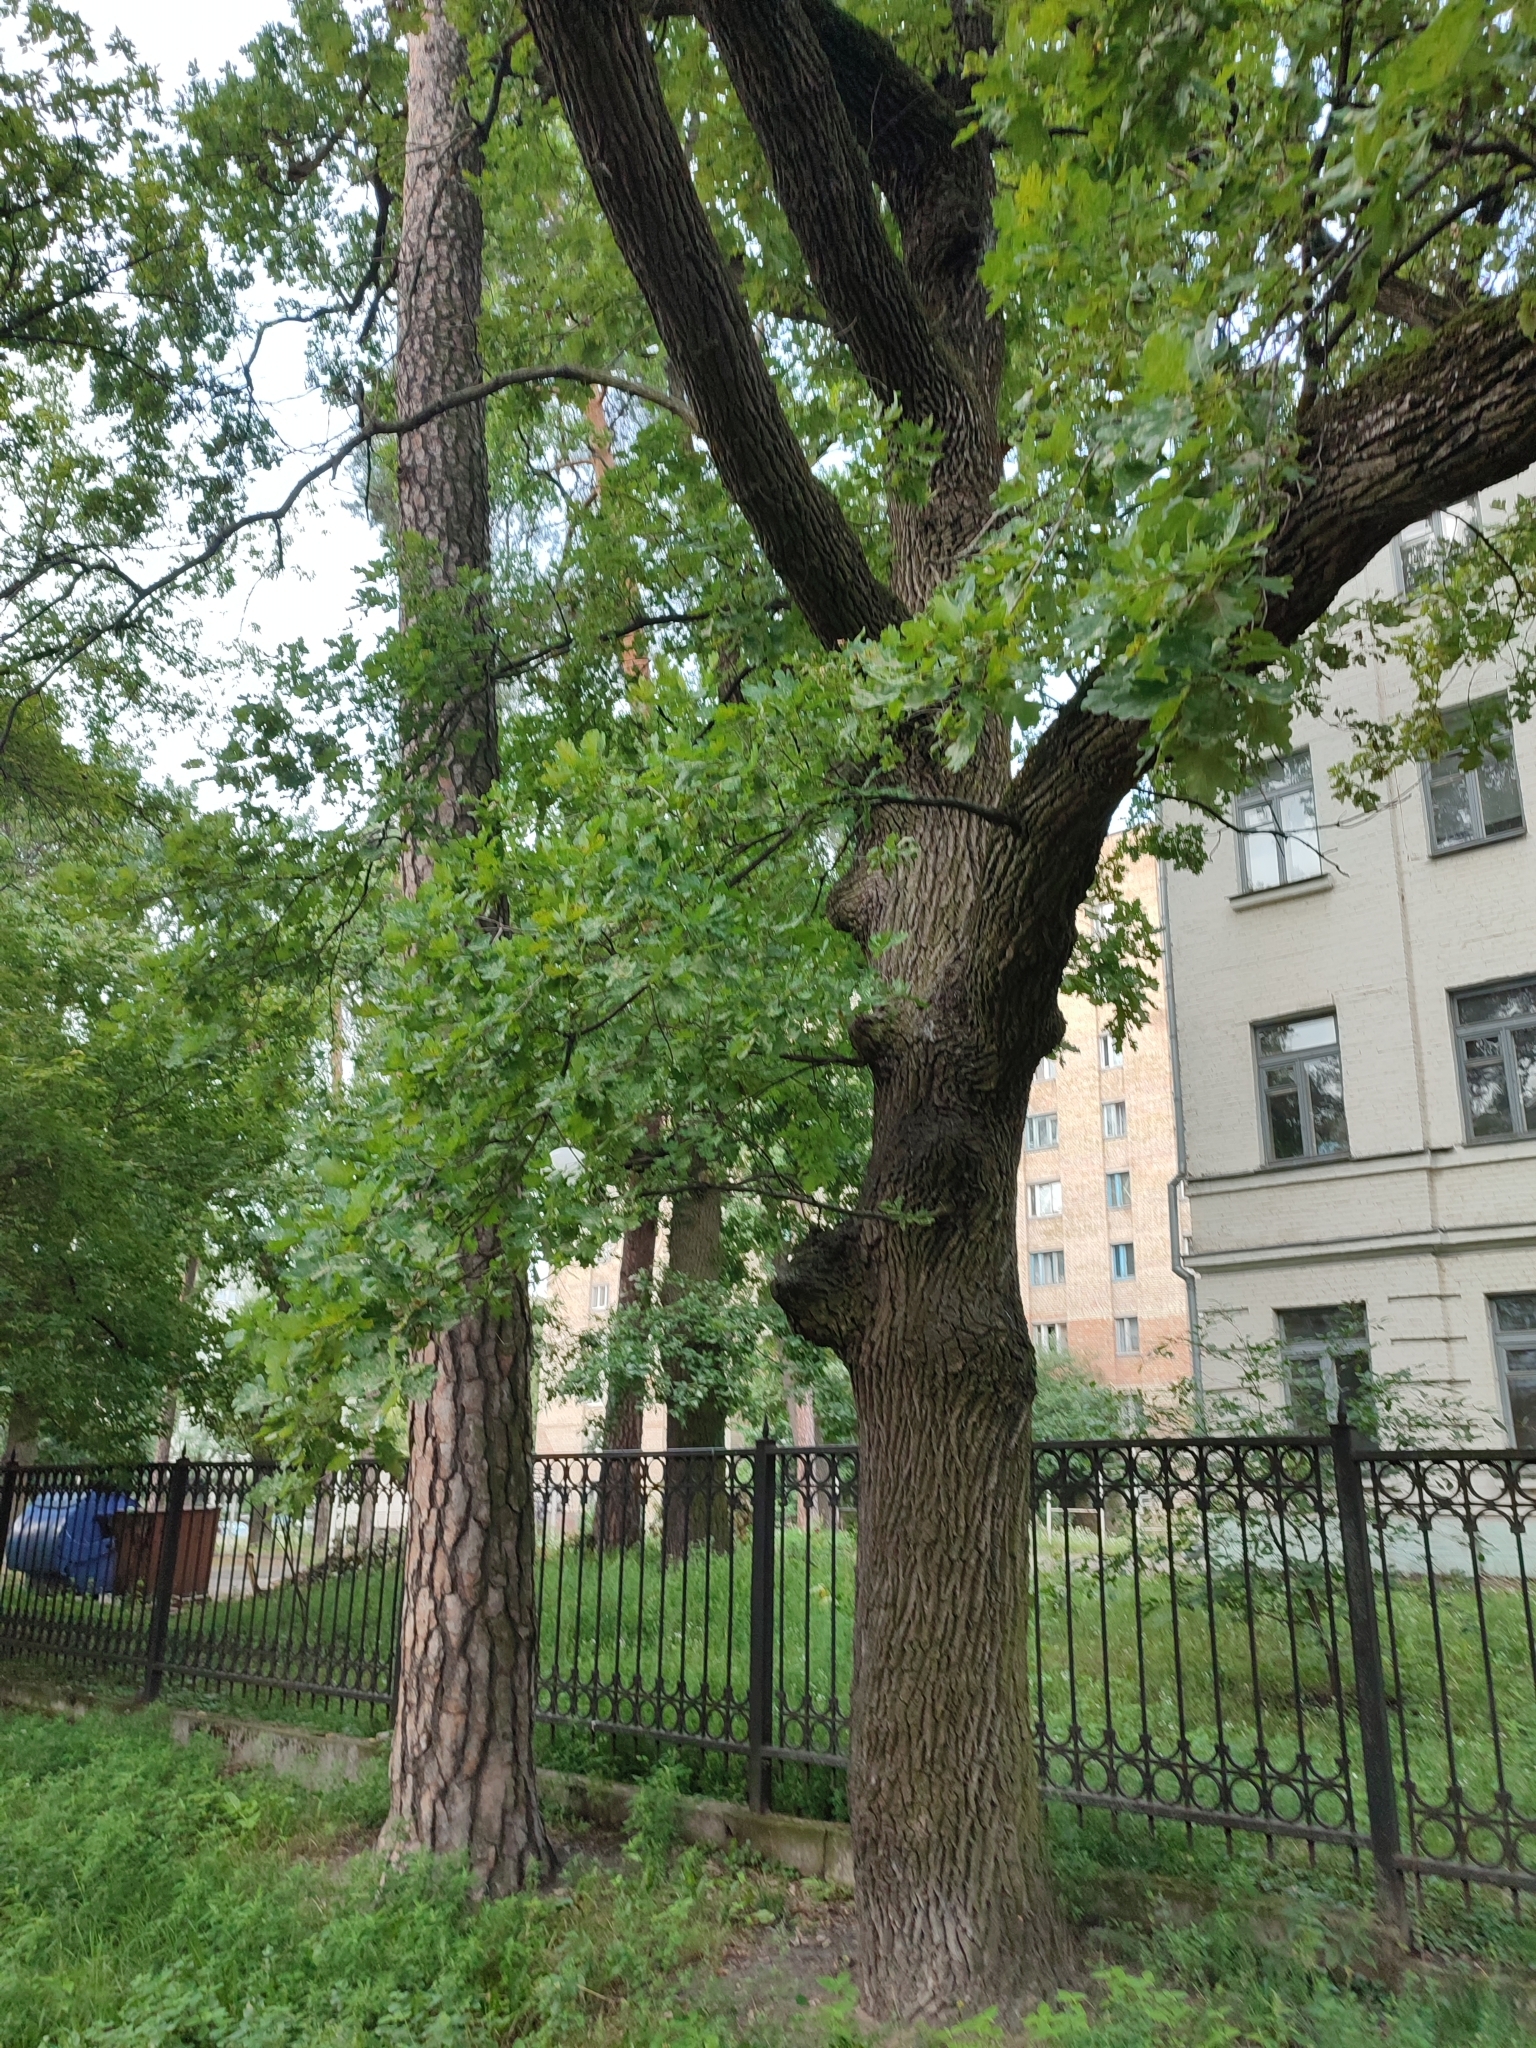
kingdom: Plantae
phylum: Tracheophyta
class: Magnoliopsida
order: Fagales
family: Fagaceae
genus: Quercus
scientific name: Quercus robur
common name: Pedunculate oak
